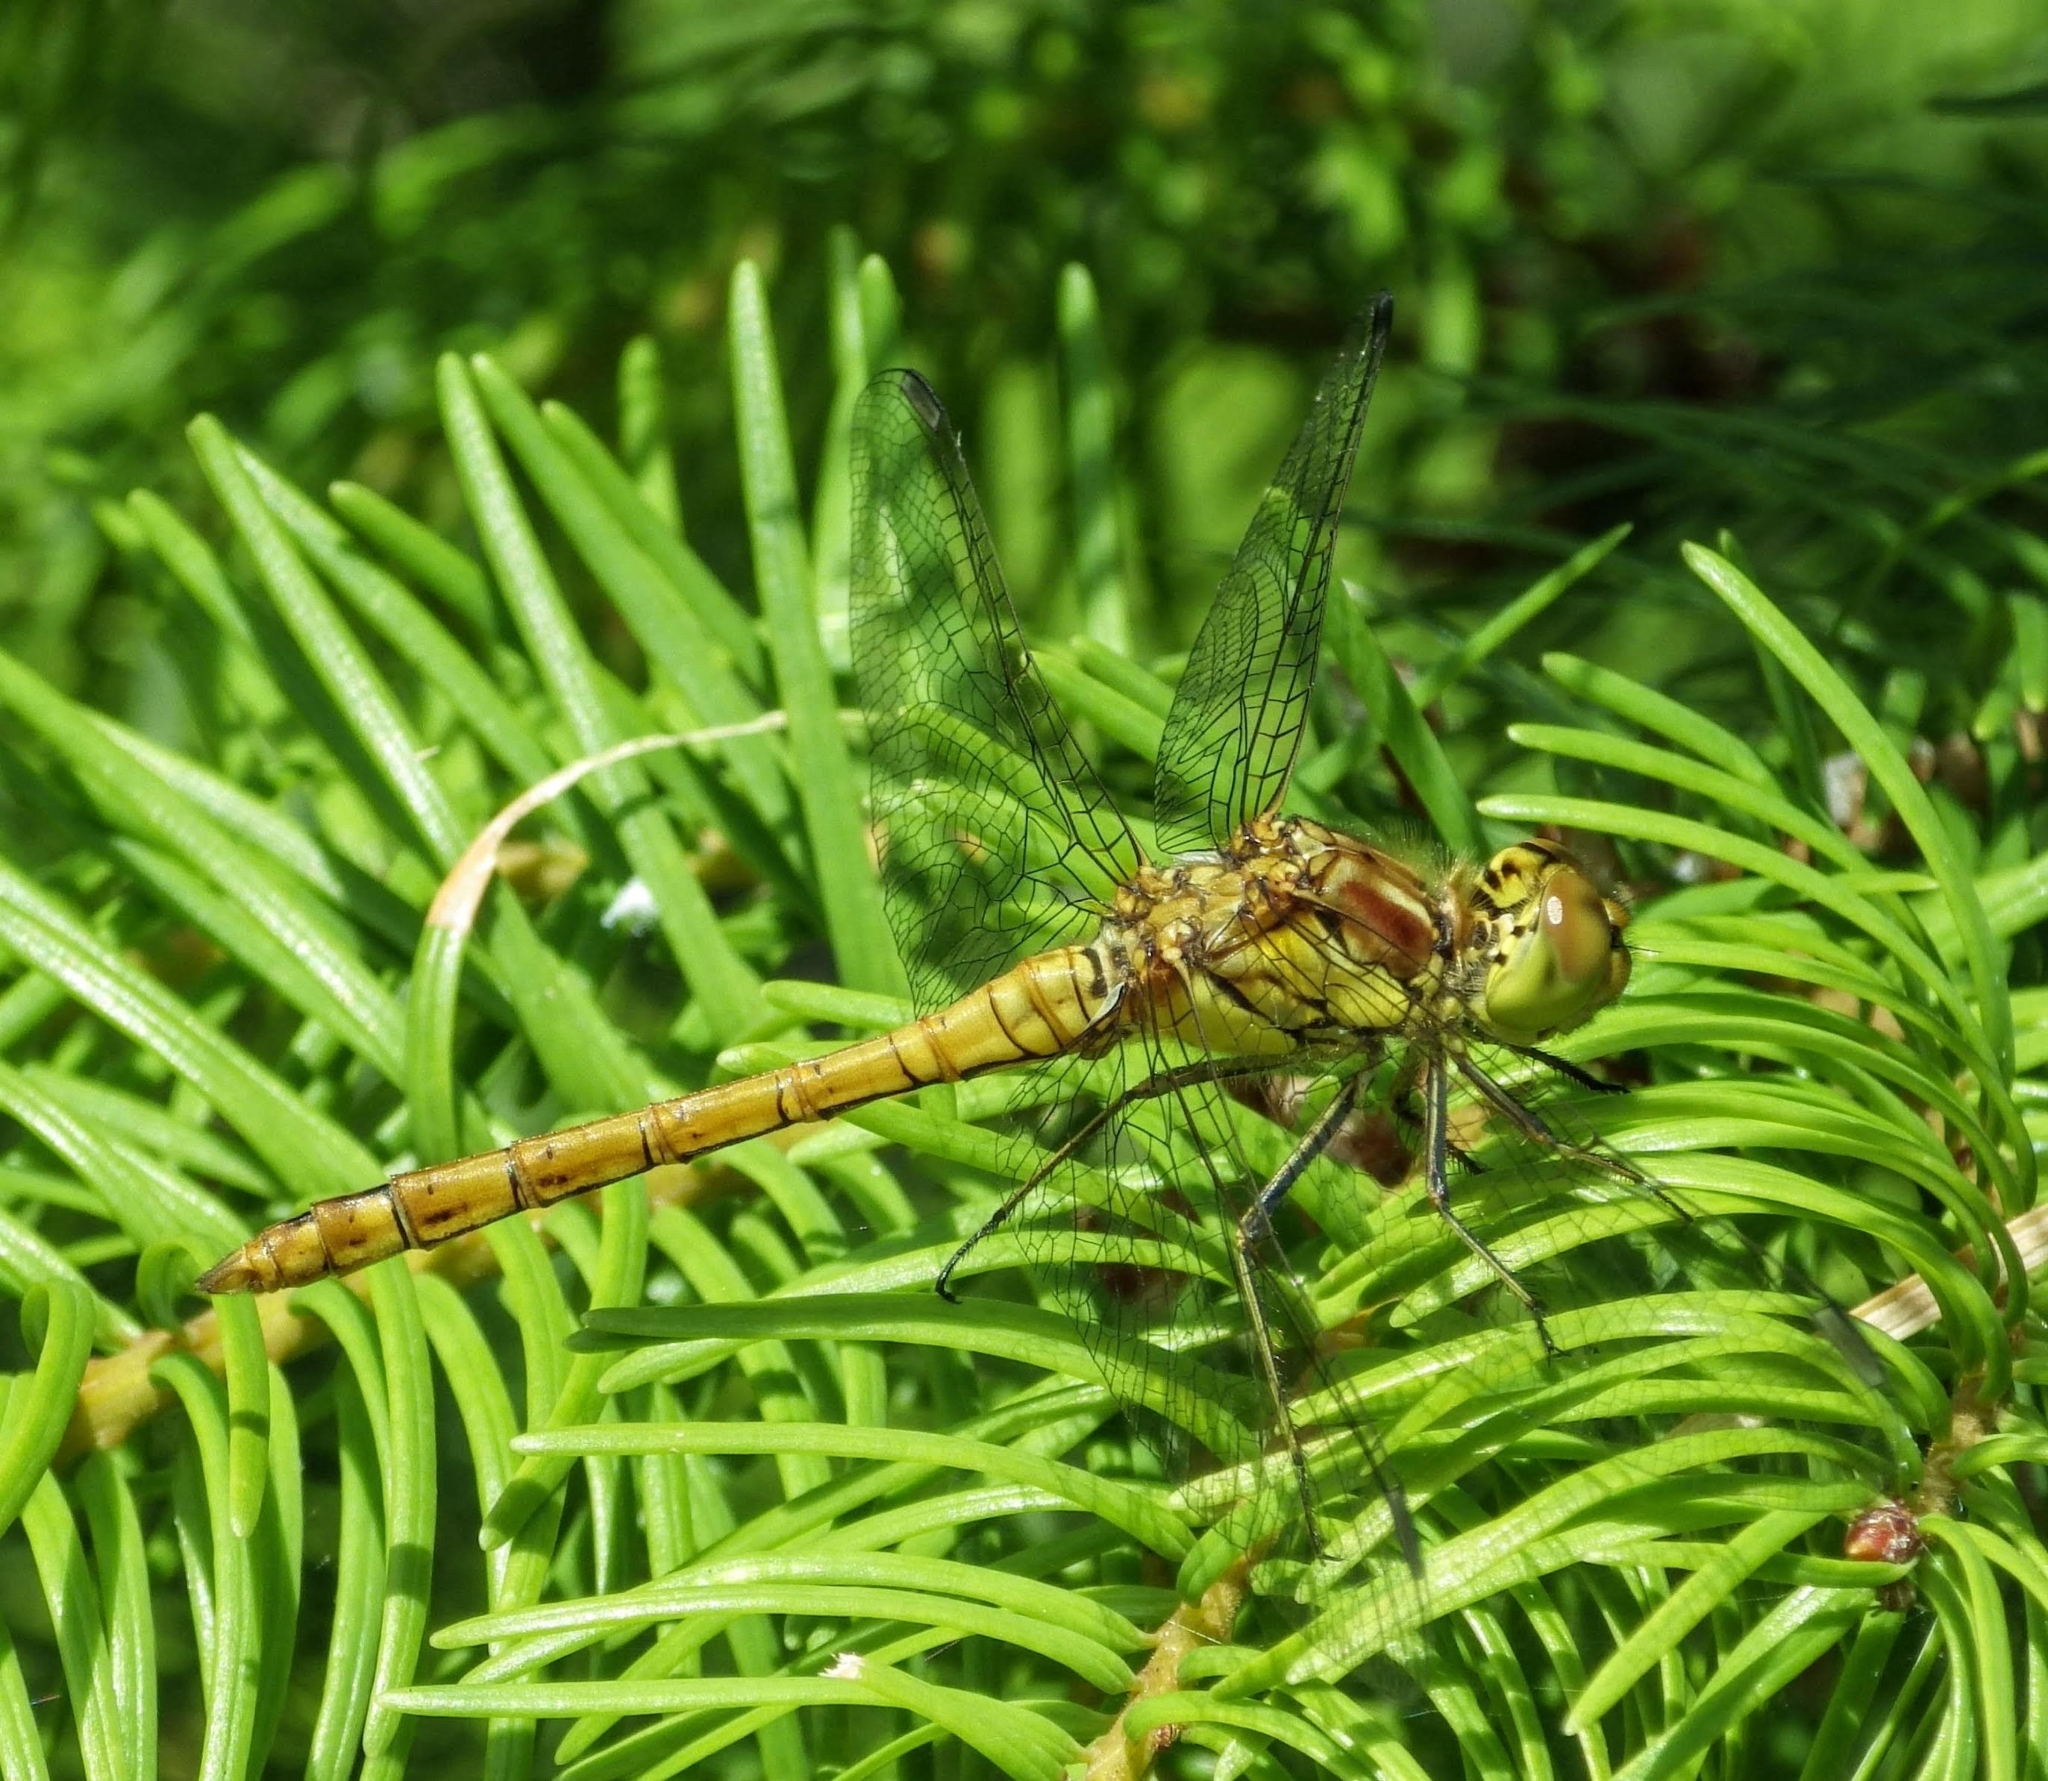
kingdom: Animalia
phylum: Arthropoda
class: Insecta
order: Odonata
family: Libellulidae
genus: Sympetrum
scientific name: Sympetrum striolatum
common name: Common darter
